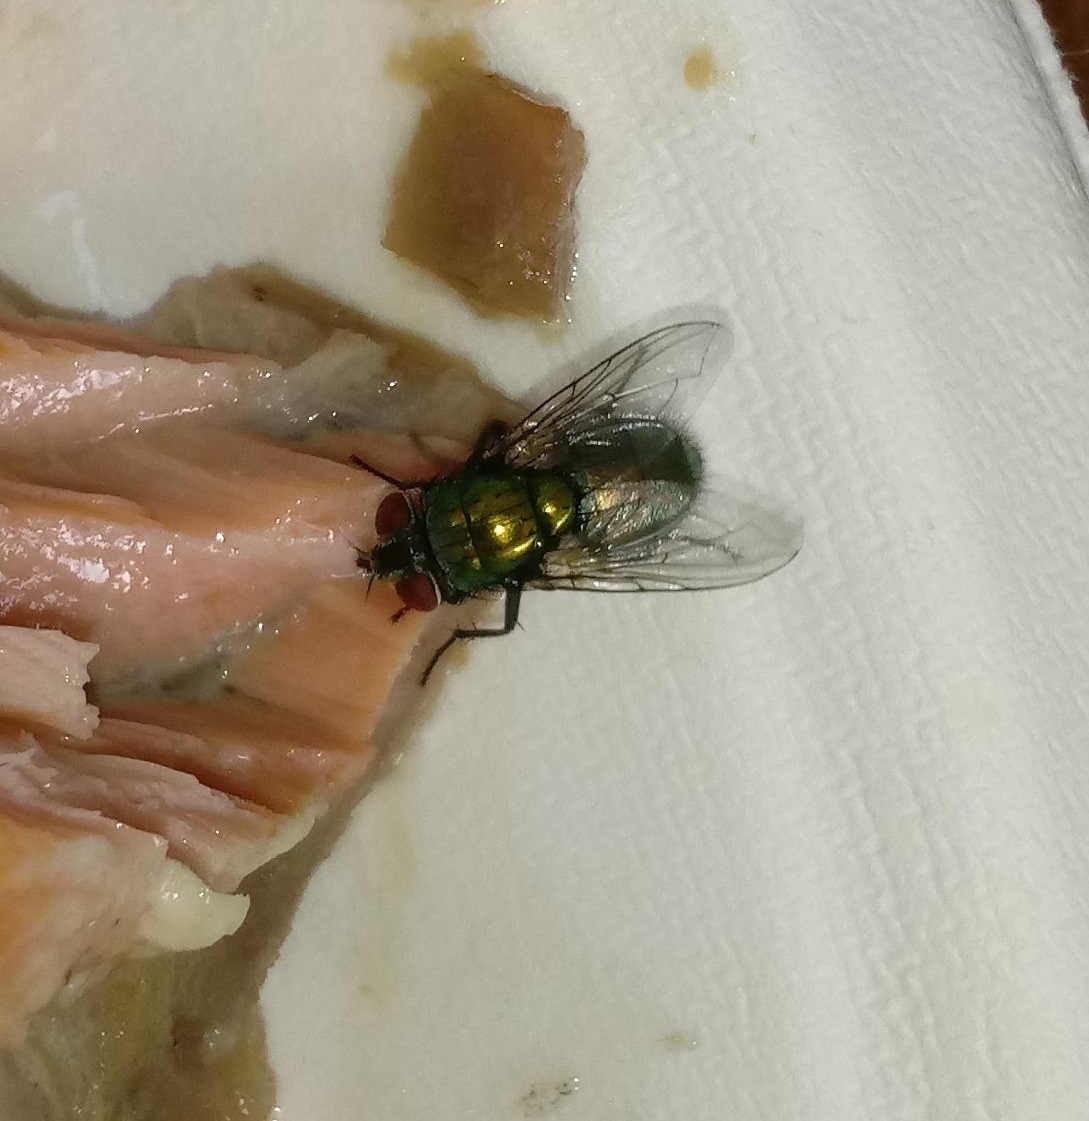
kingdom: Animalia
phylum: Arthropoda
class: Insecta
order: Diptera
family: Calliphoridae
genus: Lucilia
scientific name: Lucilia sericata
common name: Blow fly
